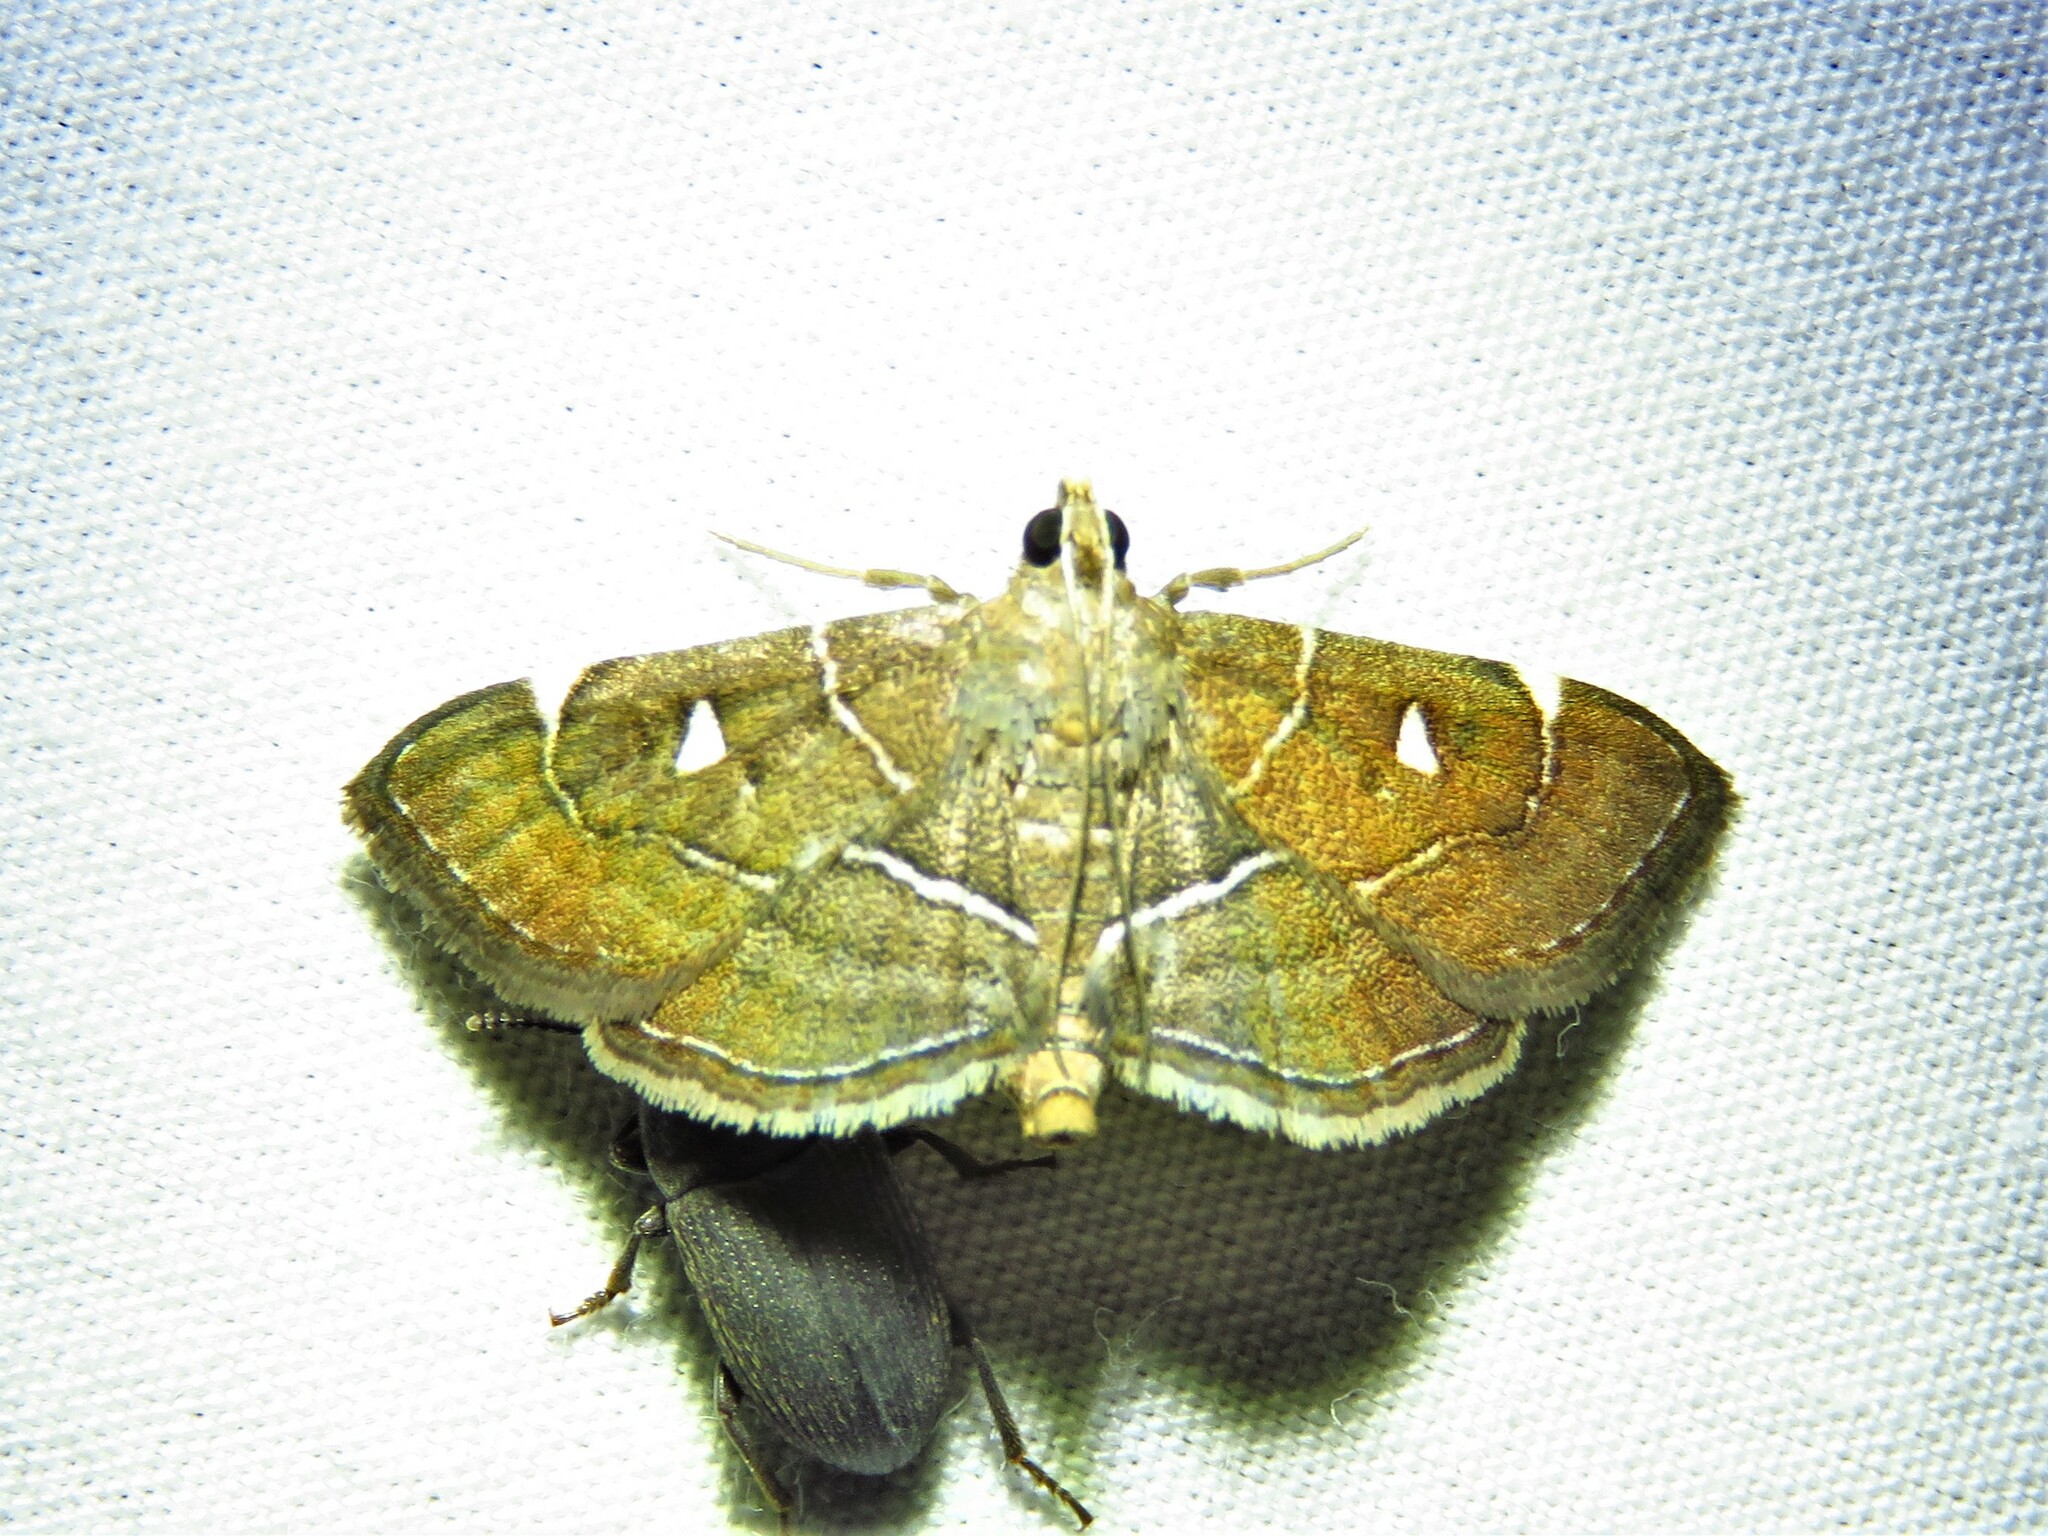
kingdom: Animalia
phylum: Arthropoda
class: Insecta
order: Lepidoptera
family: Crambidae
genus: Lamprosema
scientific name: Lamprosema victoriae
